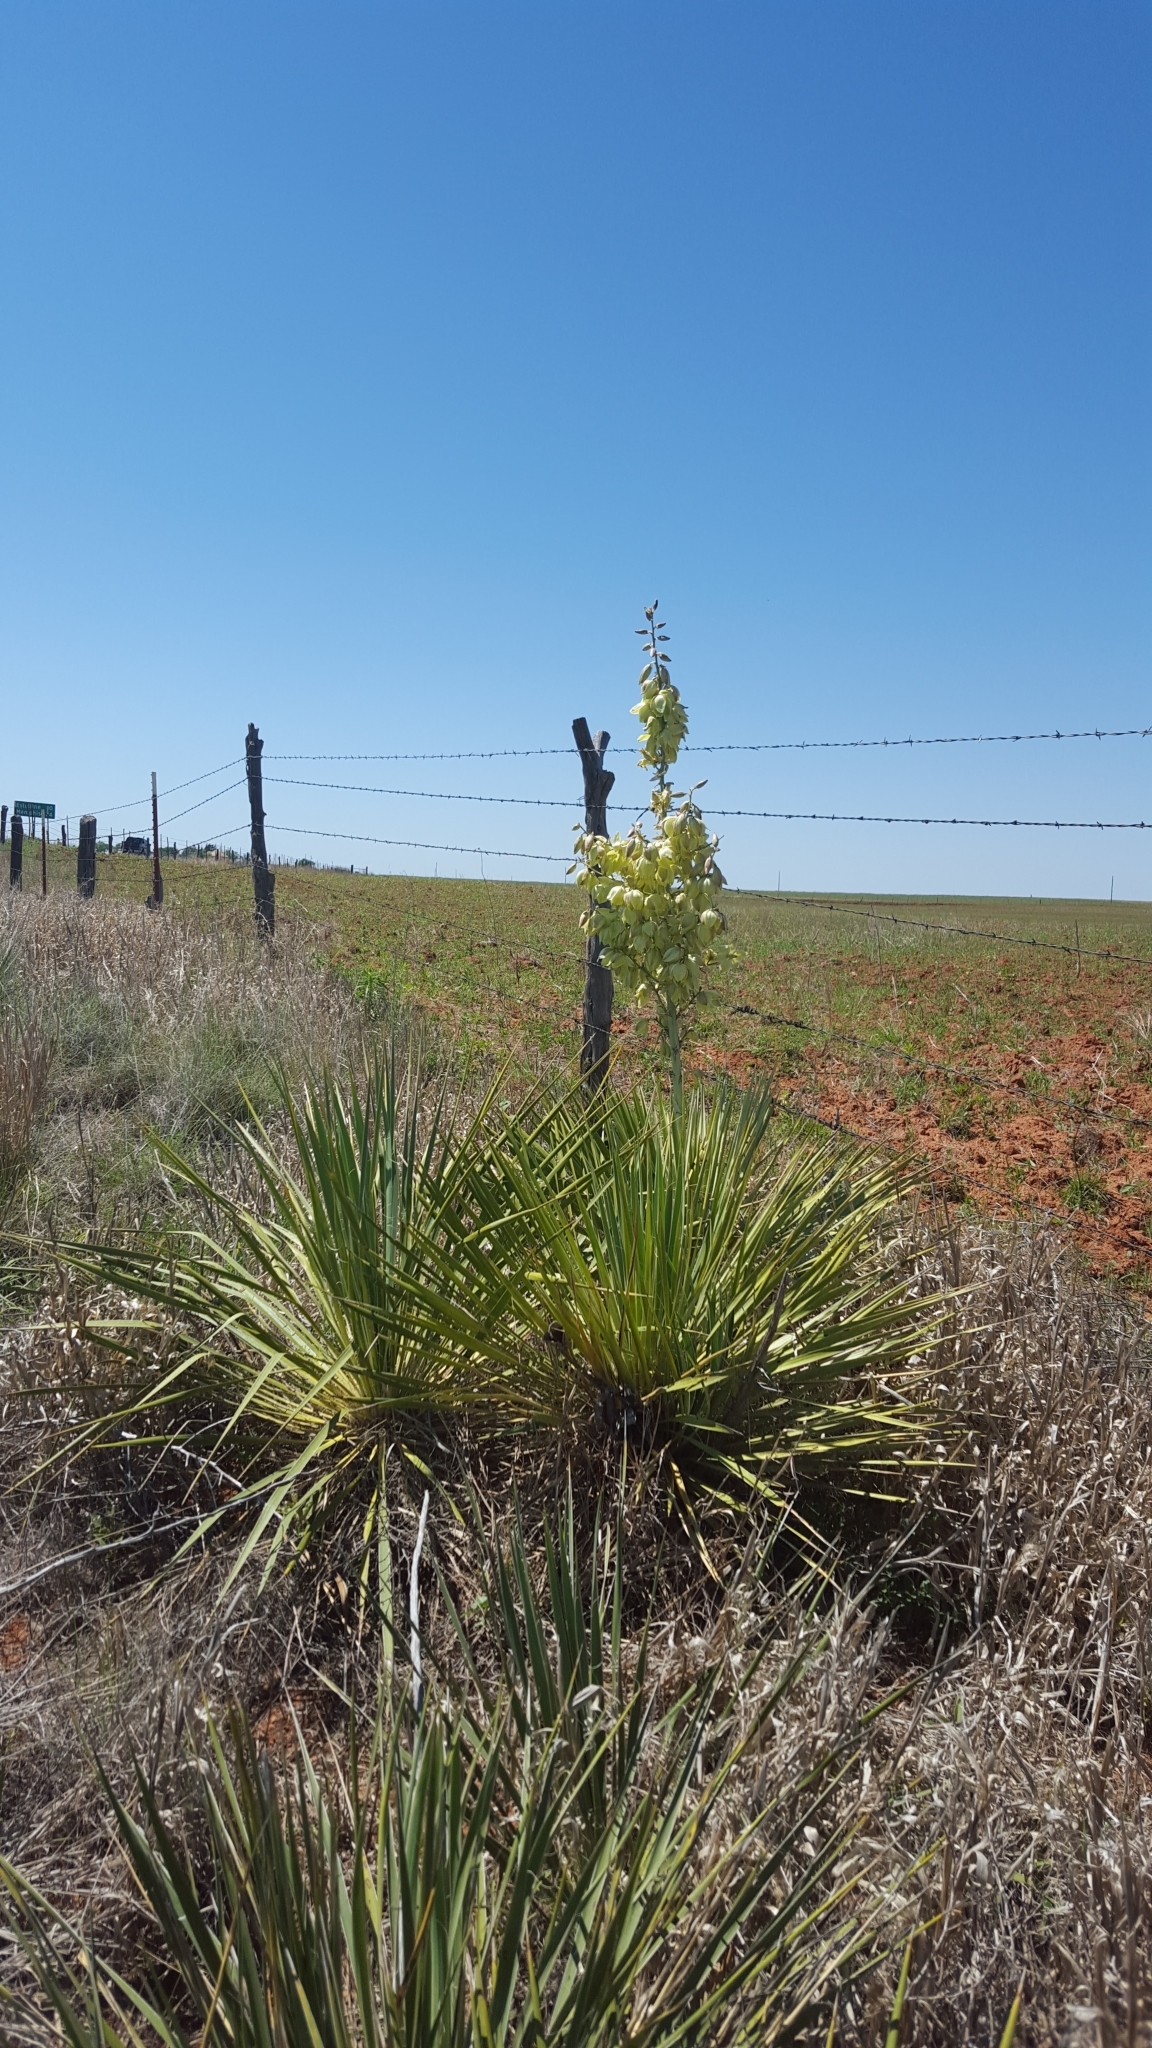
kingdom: Plantae
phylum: Tracheophyta
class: Liliopsida
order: Asparagales
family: Asparagaceae
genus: Yucca
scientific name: Yucca campestris
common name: Plains yucca
